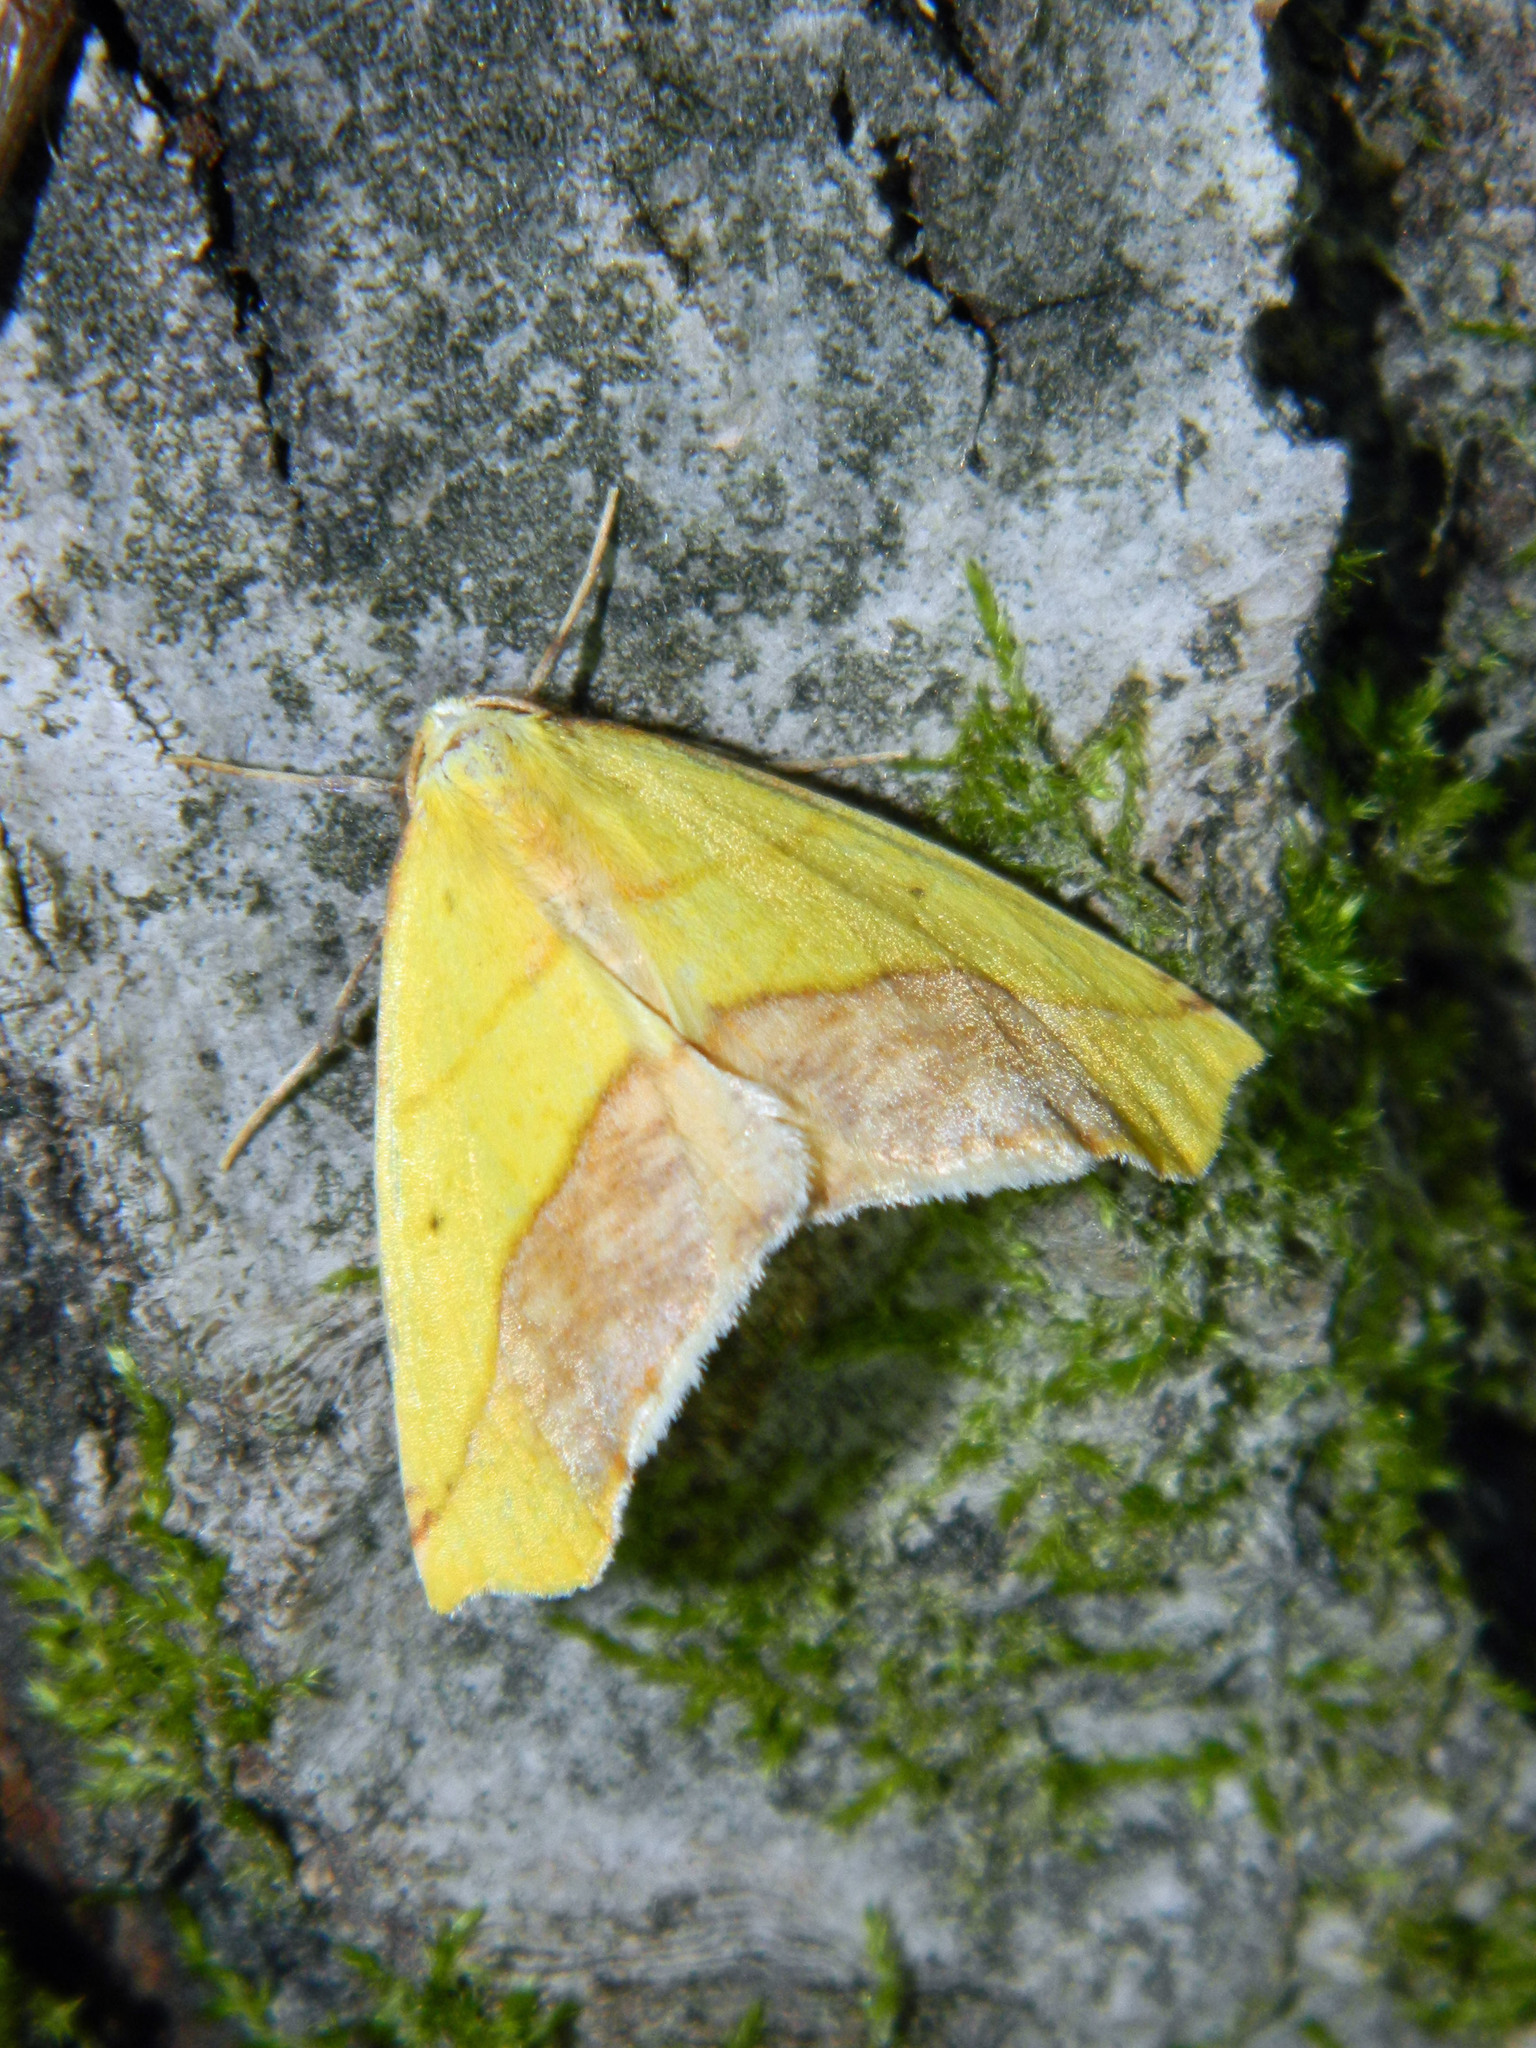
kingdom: Animalia
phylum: Arthropoda
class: Insecta
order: Lepidoptera
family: Geometridae
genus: Sicya
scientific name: Sicya macularia
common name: Sharp-lined yellow
